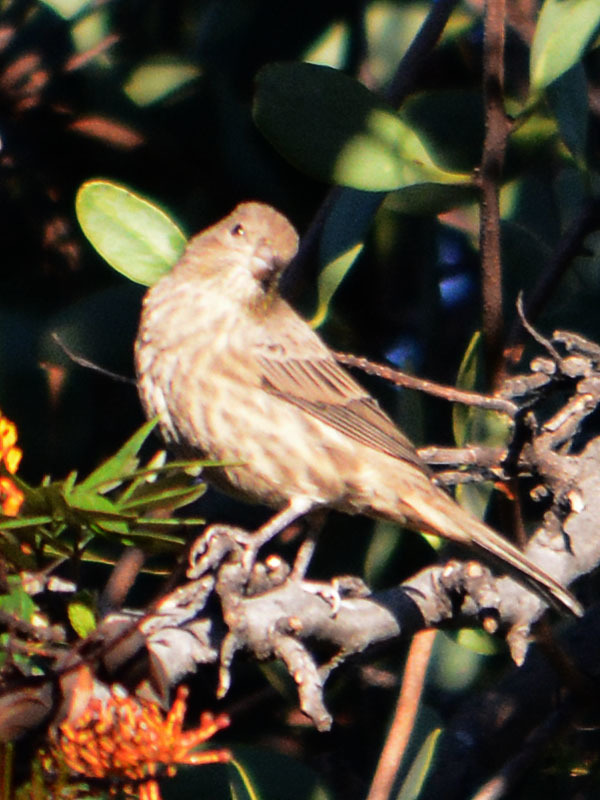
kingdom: Animalia
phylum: Chordata
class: Aves
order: Passeriformes
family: Fringillidae
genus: Haemorhous
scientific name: Haemorhous mexicanus
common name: House finch
